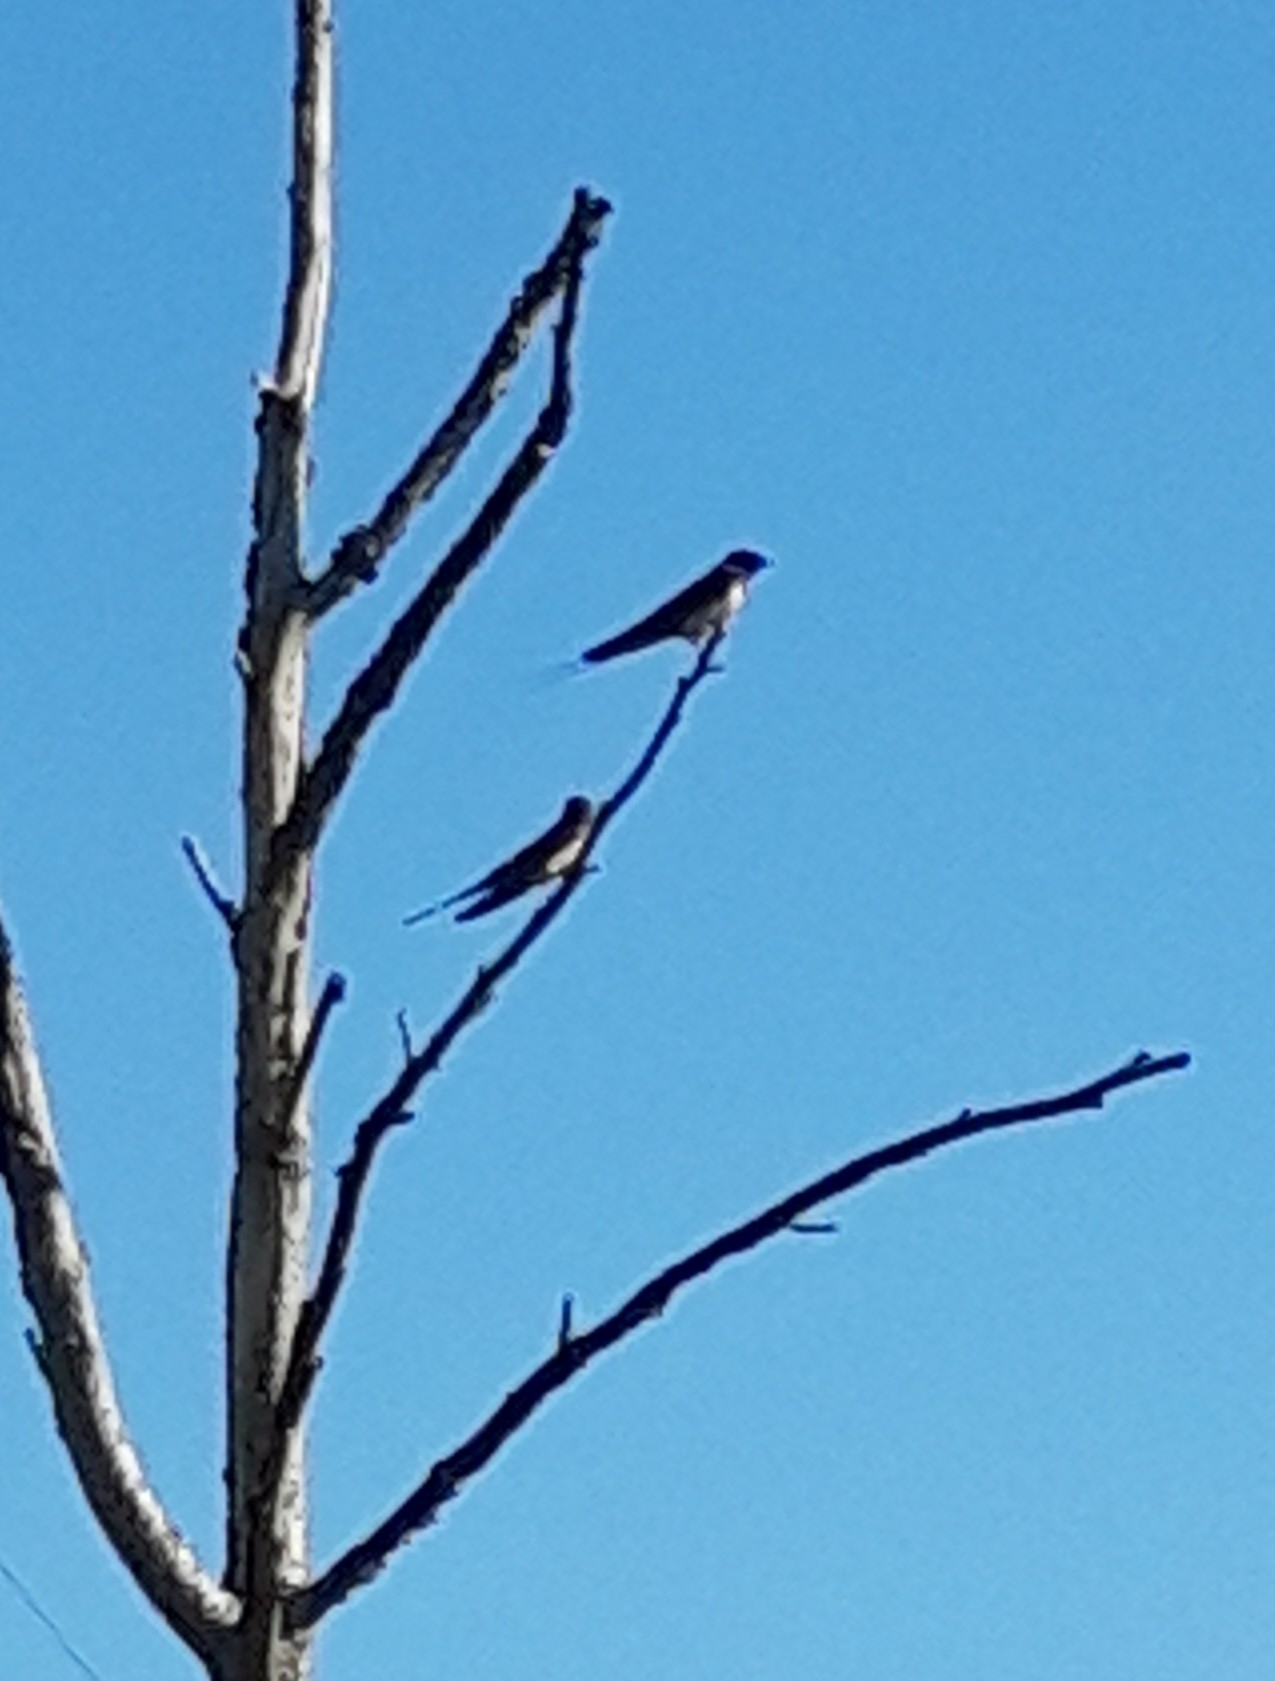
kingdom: Animalia
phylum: Chordata
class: Aves
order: Passeriformes
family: Hirundinidae
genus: Hirundo
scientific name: Hirundo rustica
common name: Barn swallow
